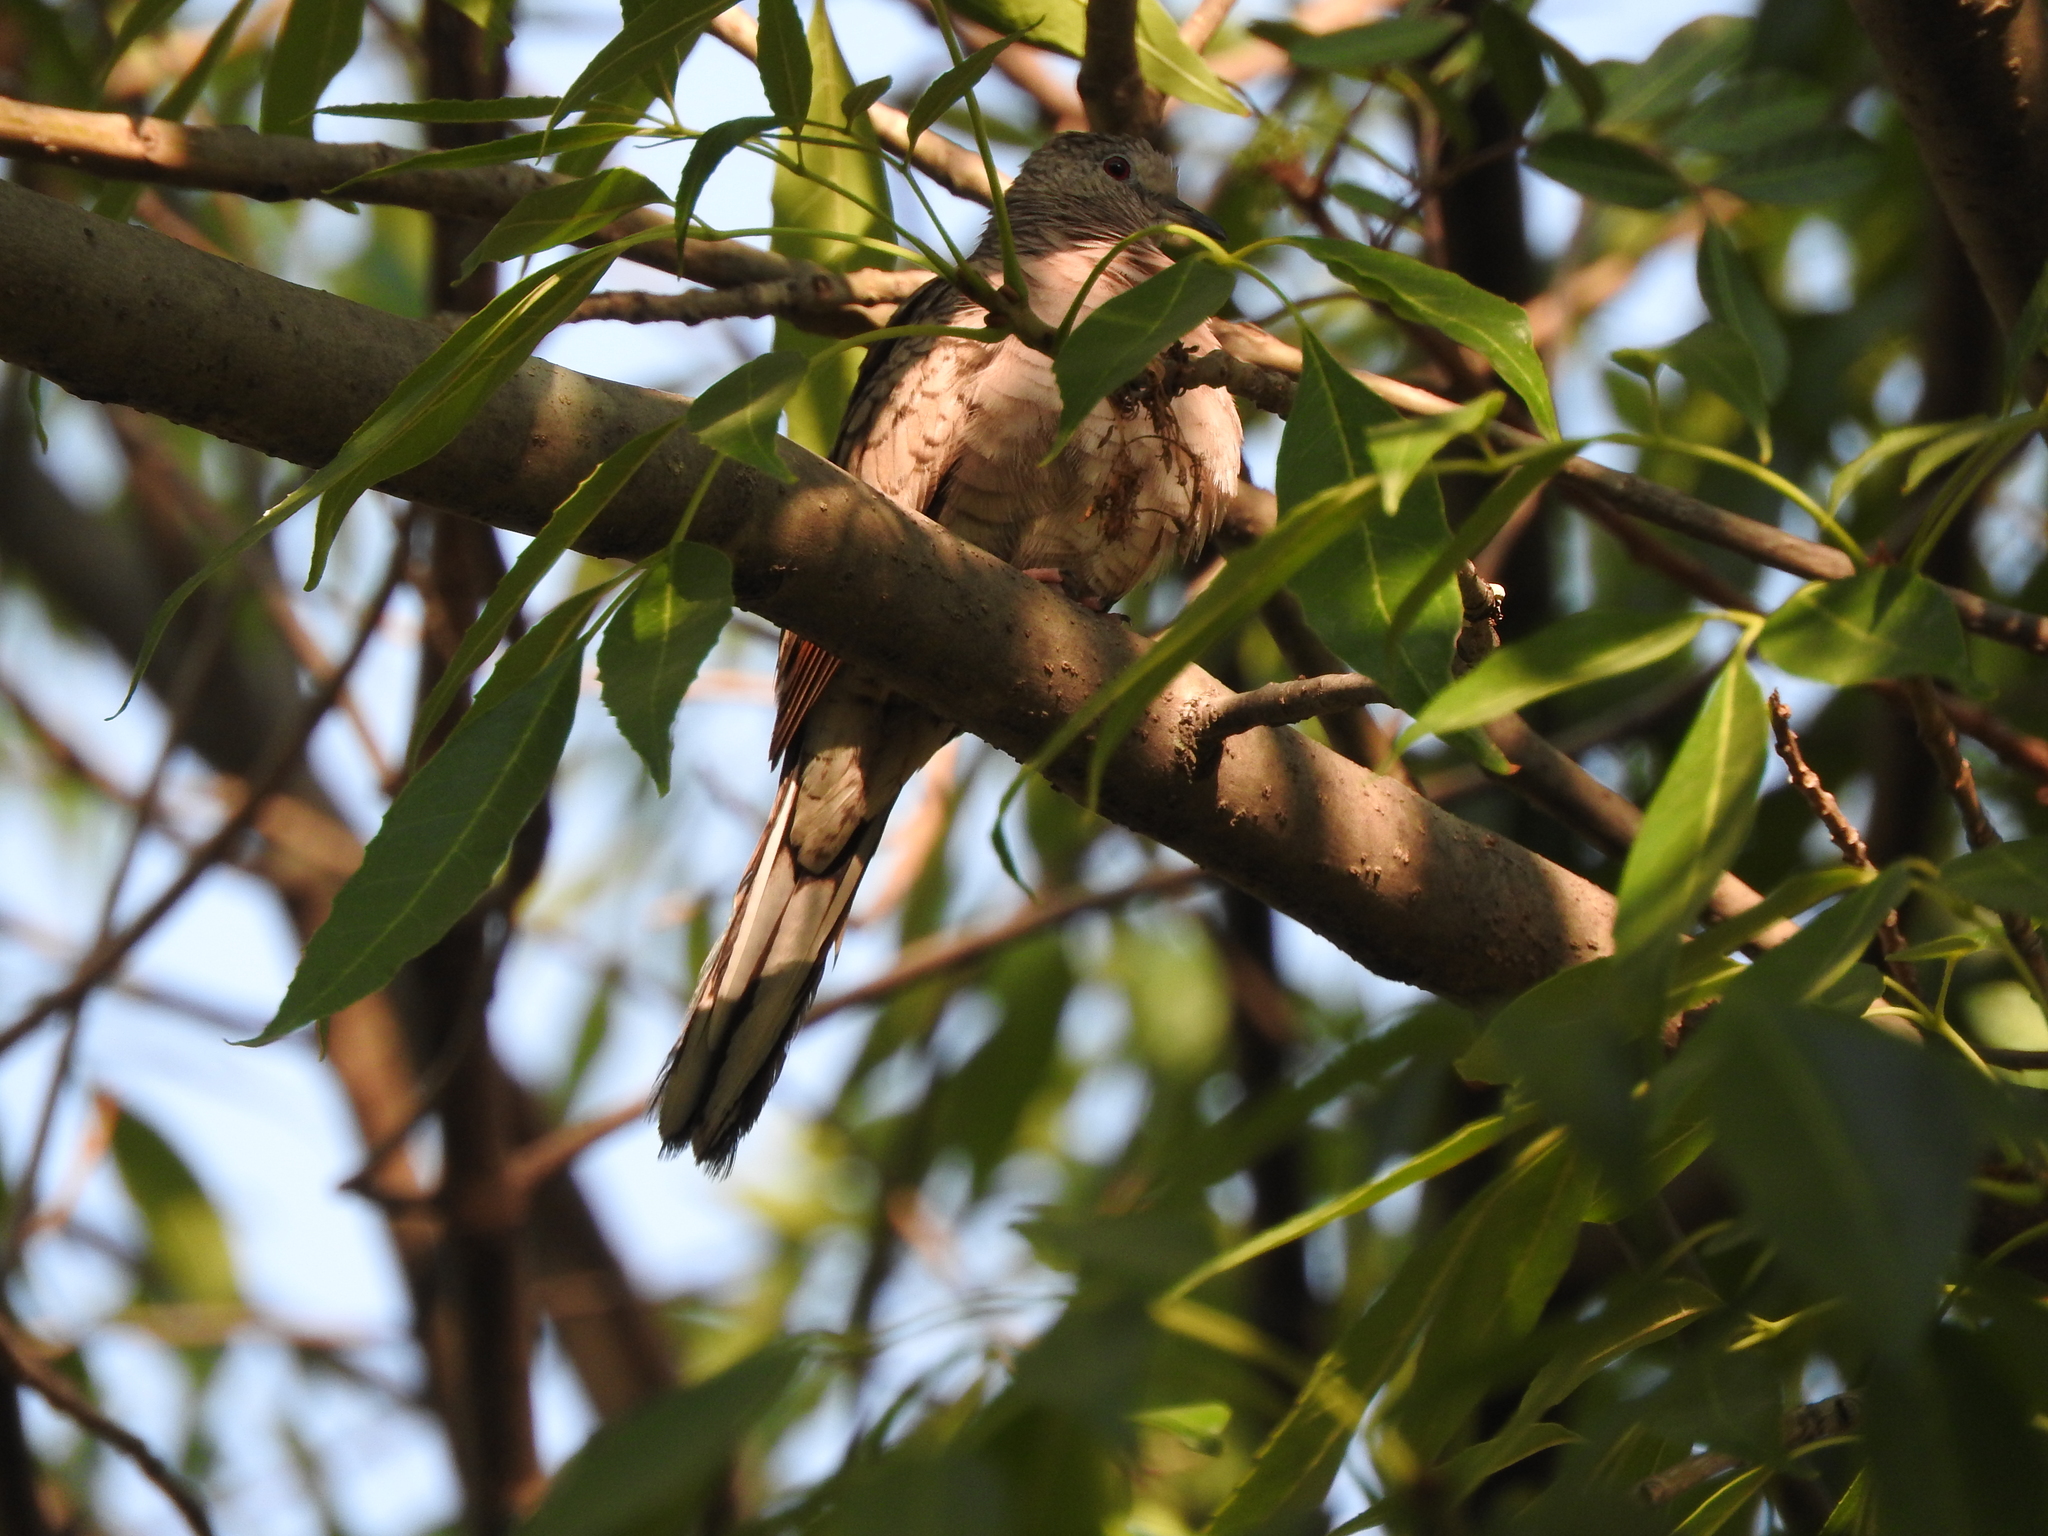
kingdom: Animalia
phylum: Chordata
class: Aves
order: Columbiformes
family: Columbidae
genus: Columbina
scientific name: Columbina inca
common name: Inca dove
